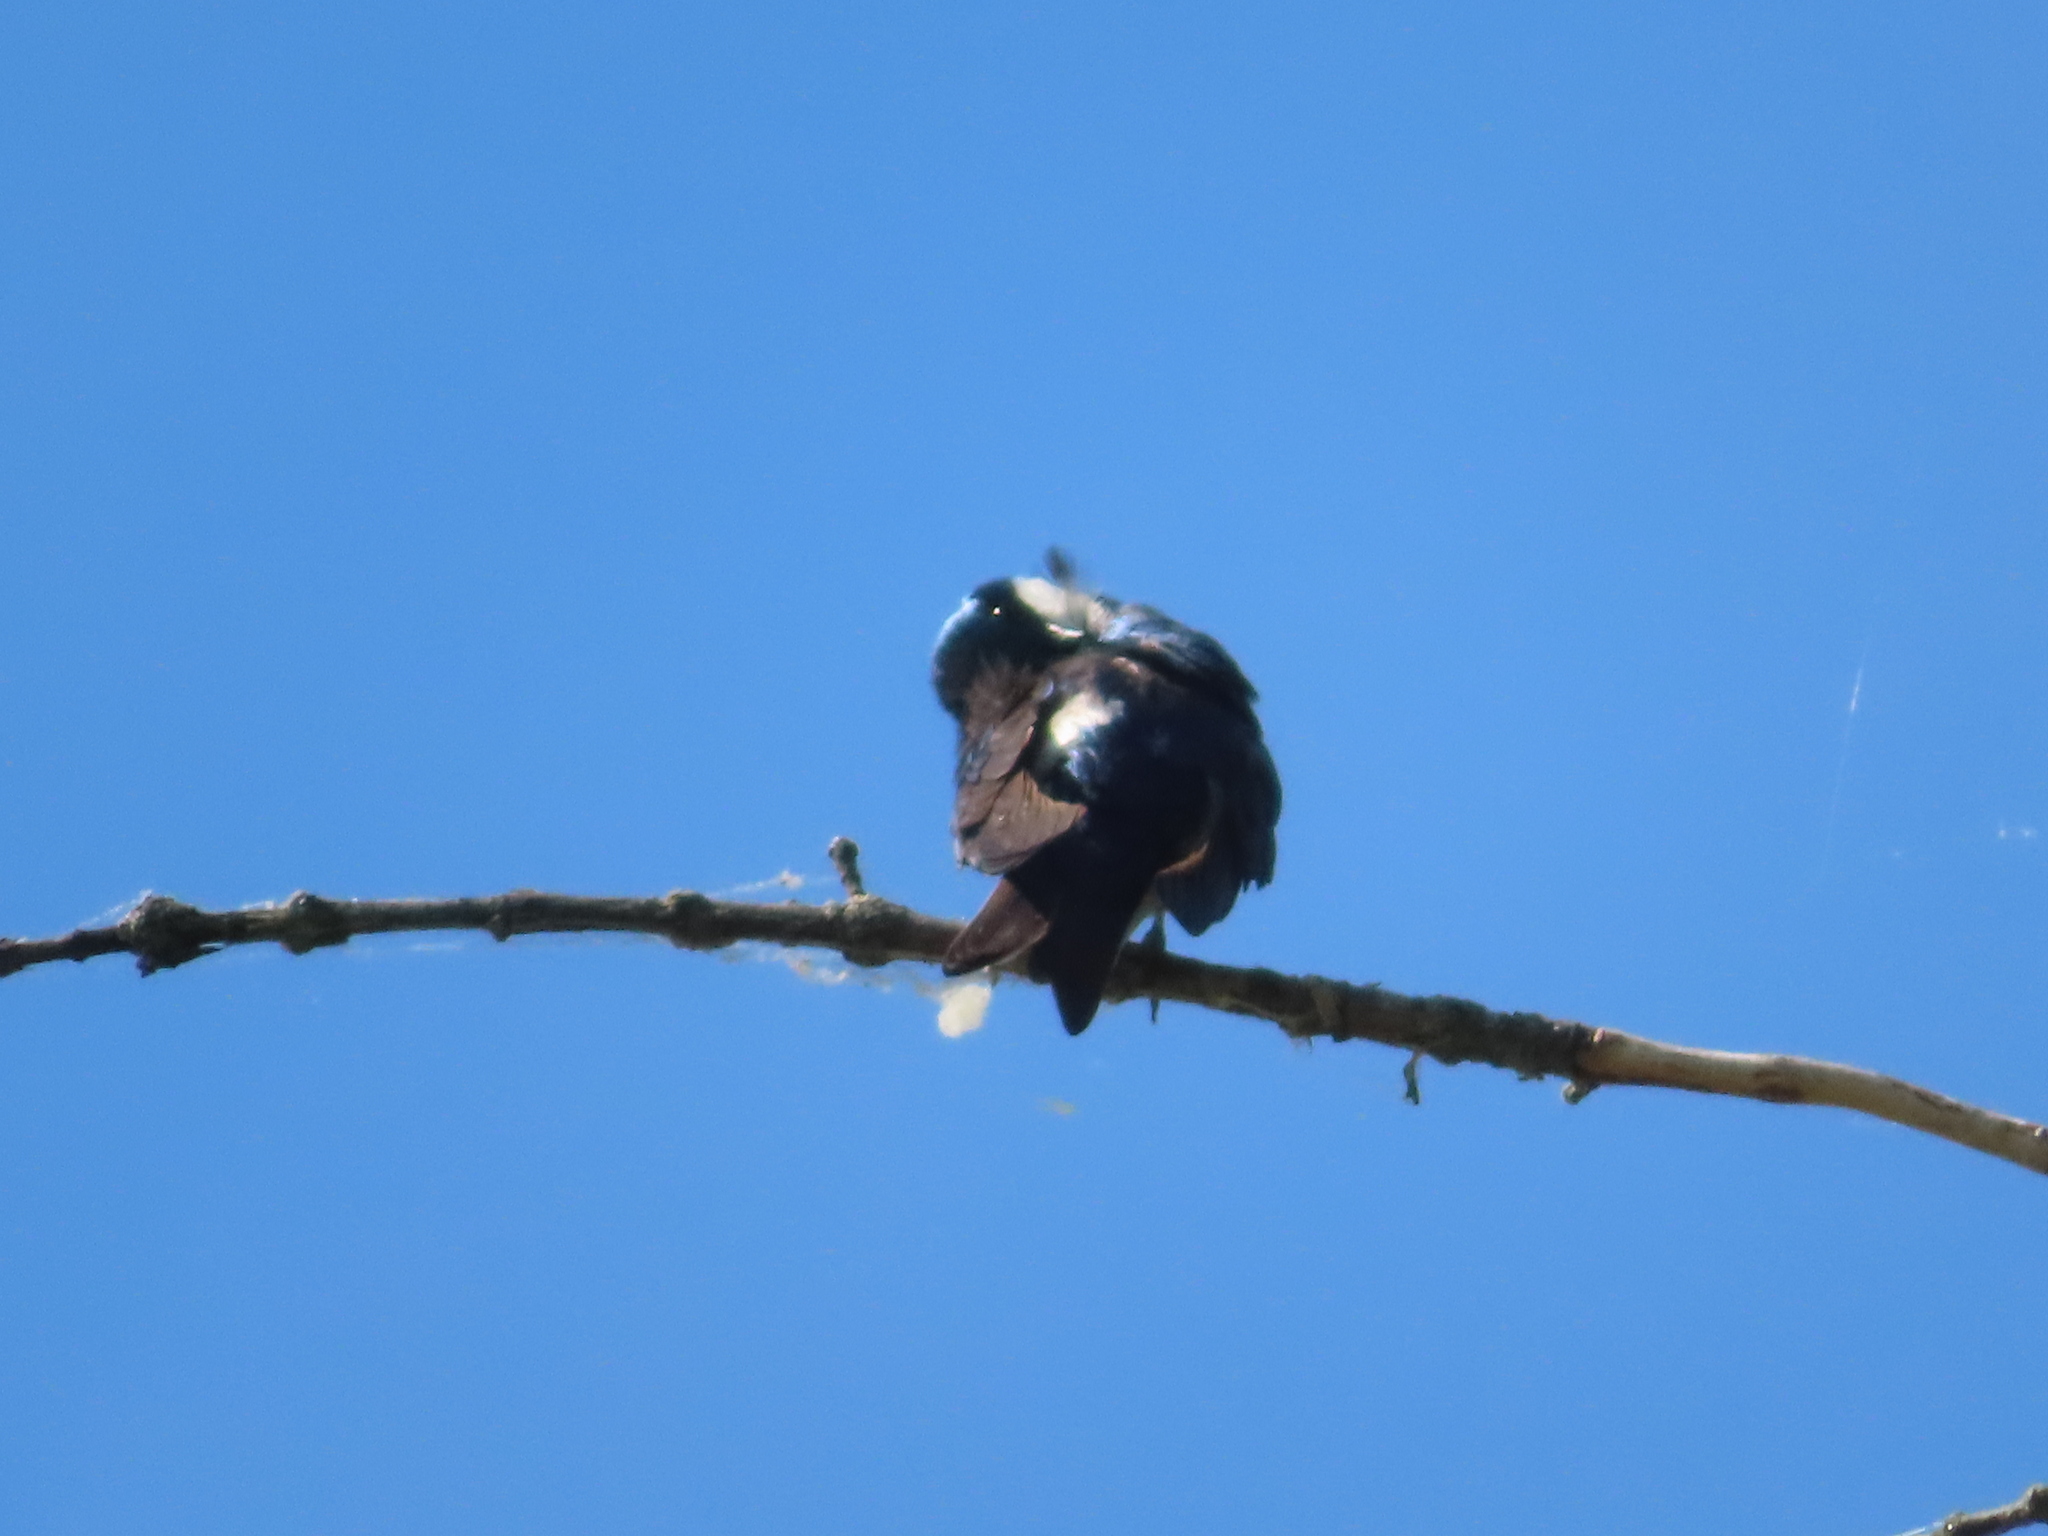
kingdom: Animalia
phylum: Chordata
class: Aves
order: Passeriformes
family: Hirundinidae
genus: Tachycineta
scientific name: Tachycineta bicolor
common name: Tree swallow
